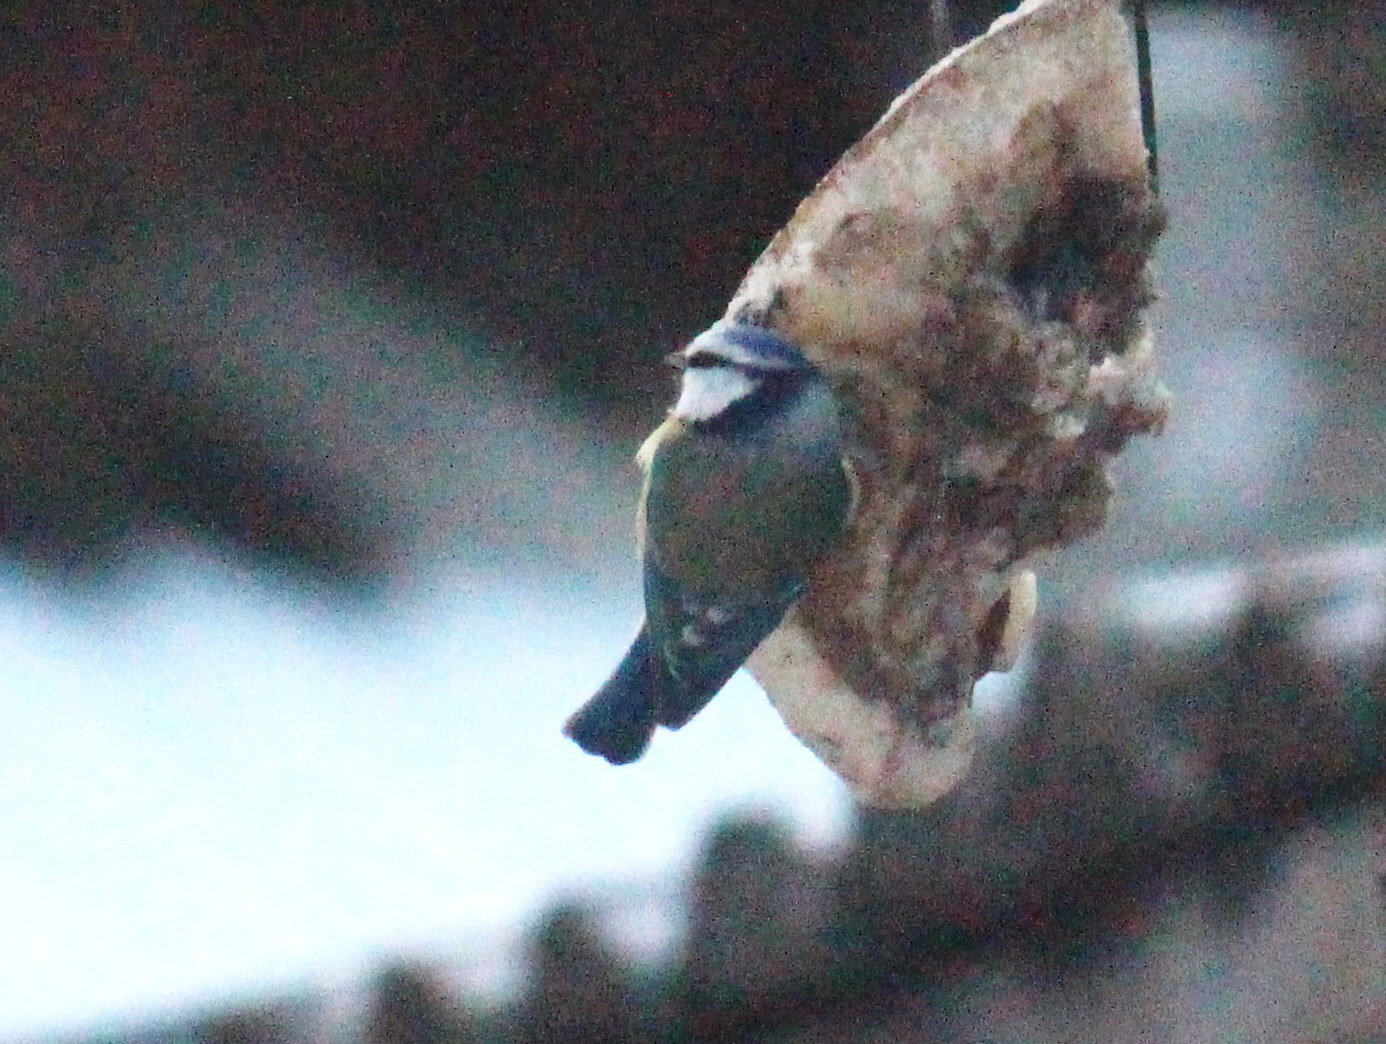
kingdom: Animalia
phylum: Chordata
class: Aves
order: Passeriformes
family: Paridae
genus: Cyanistes
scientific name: Cyanistes caeruleus
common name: Eurasian blue tit
